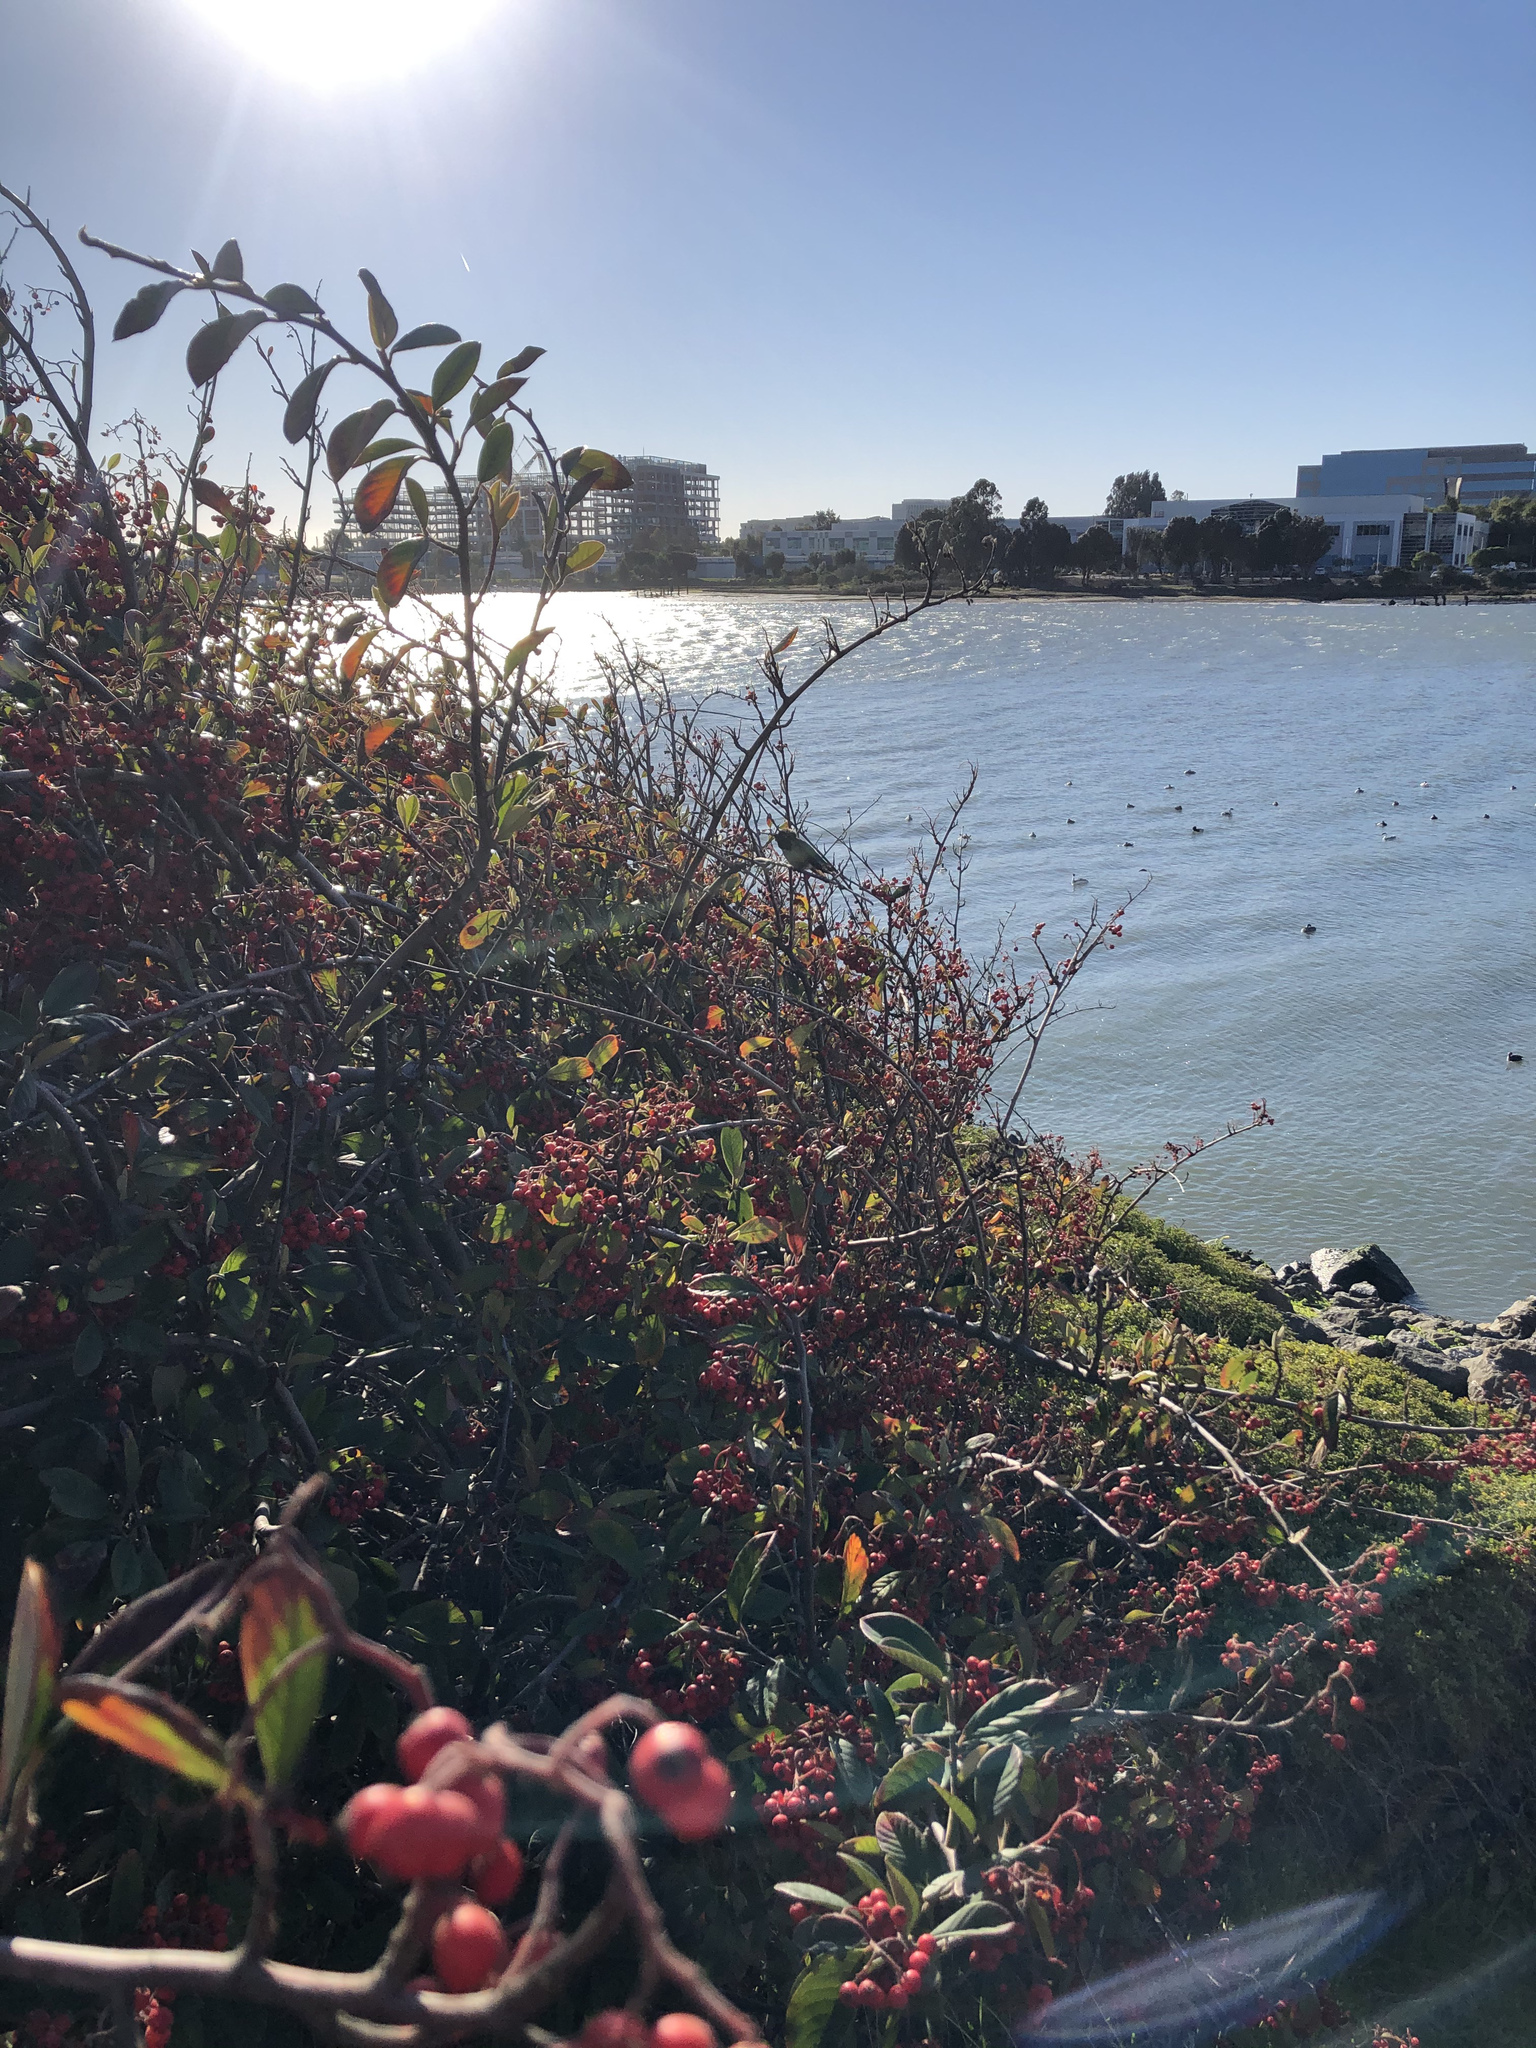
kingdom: Animalia
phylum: Chordata
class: Aves
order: Apodiformes
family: Trochilidae
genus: Calypte
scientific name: Calypte anna
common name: Anna's hummingbird
